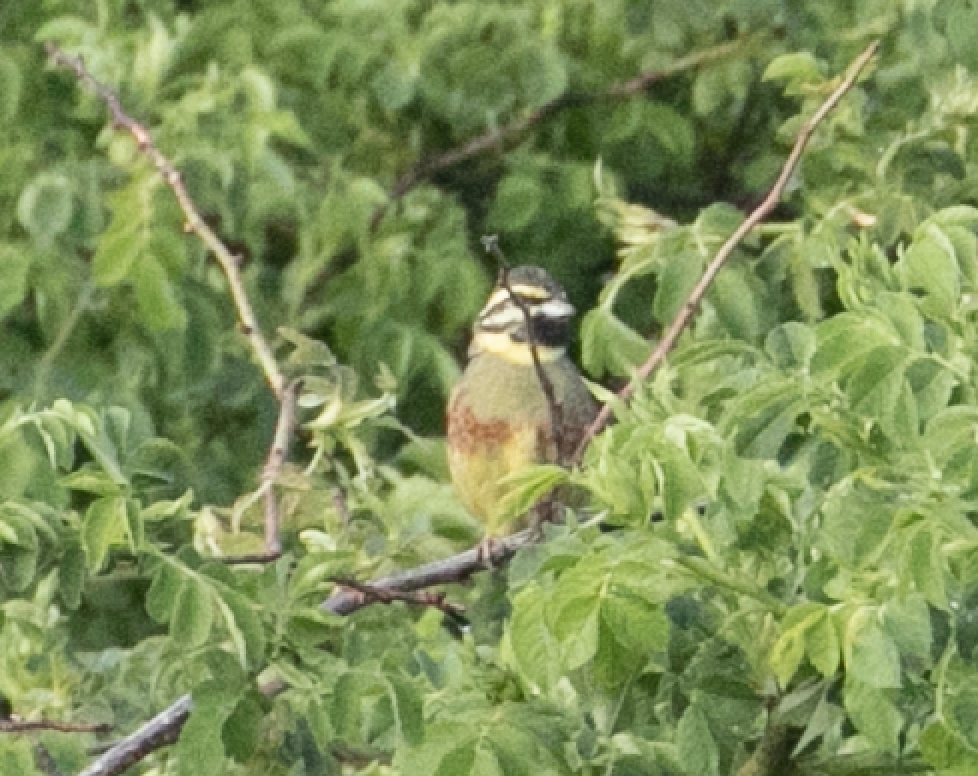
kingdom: Animalia
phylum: Chordata
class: Aves
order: Passeriformes
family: Emberizidae
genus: Emberiza
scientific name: Emberiza cirlus
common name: Cirl bunting
